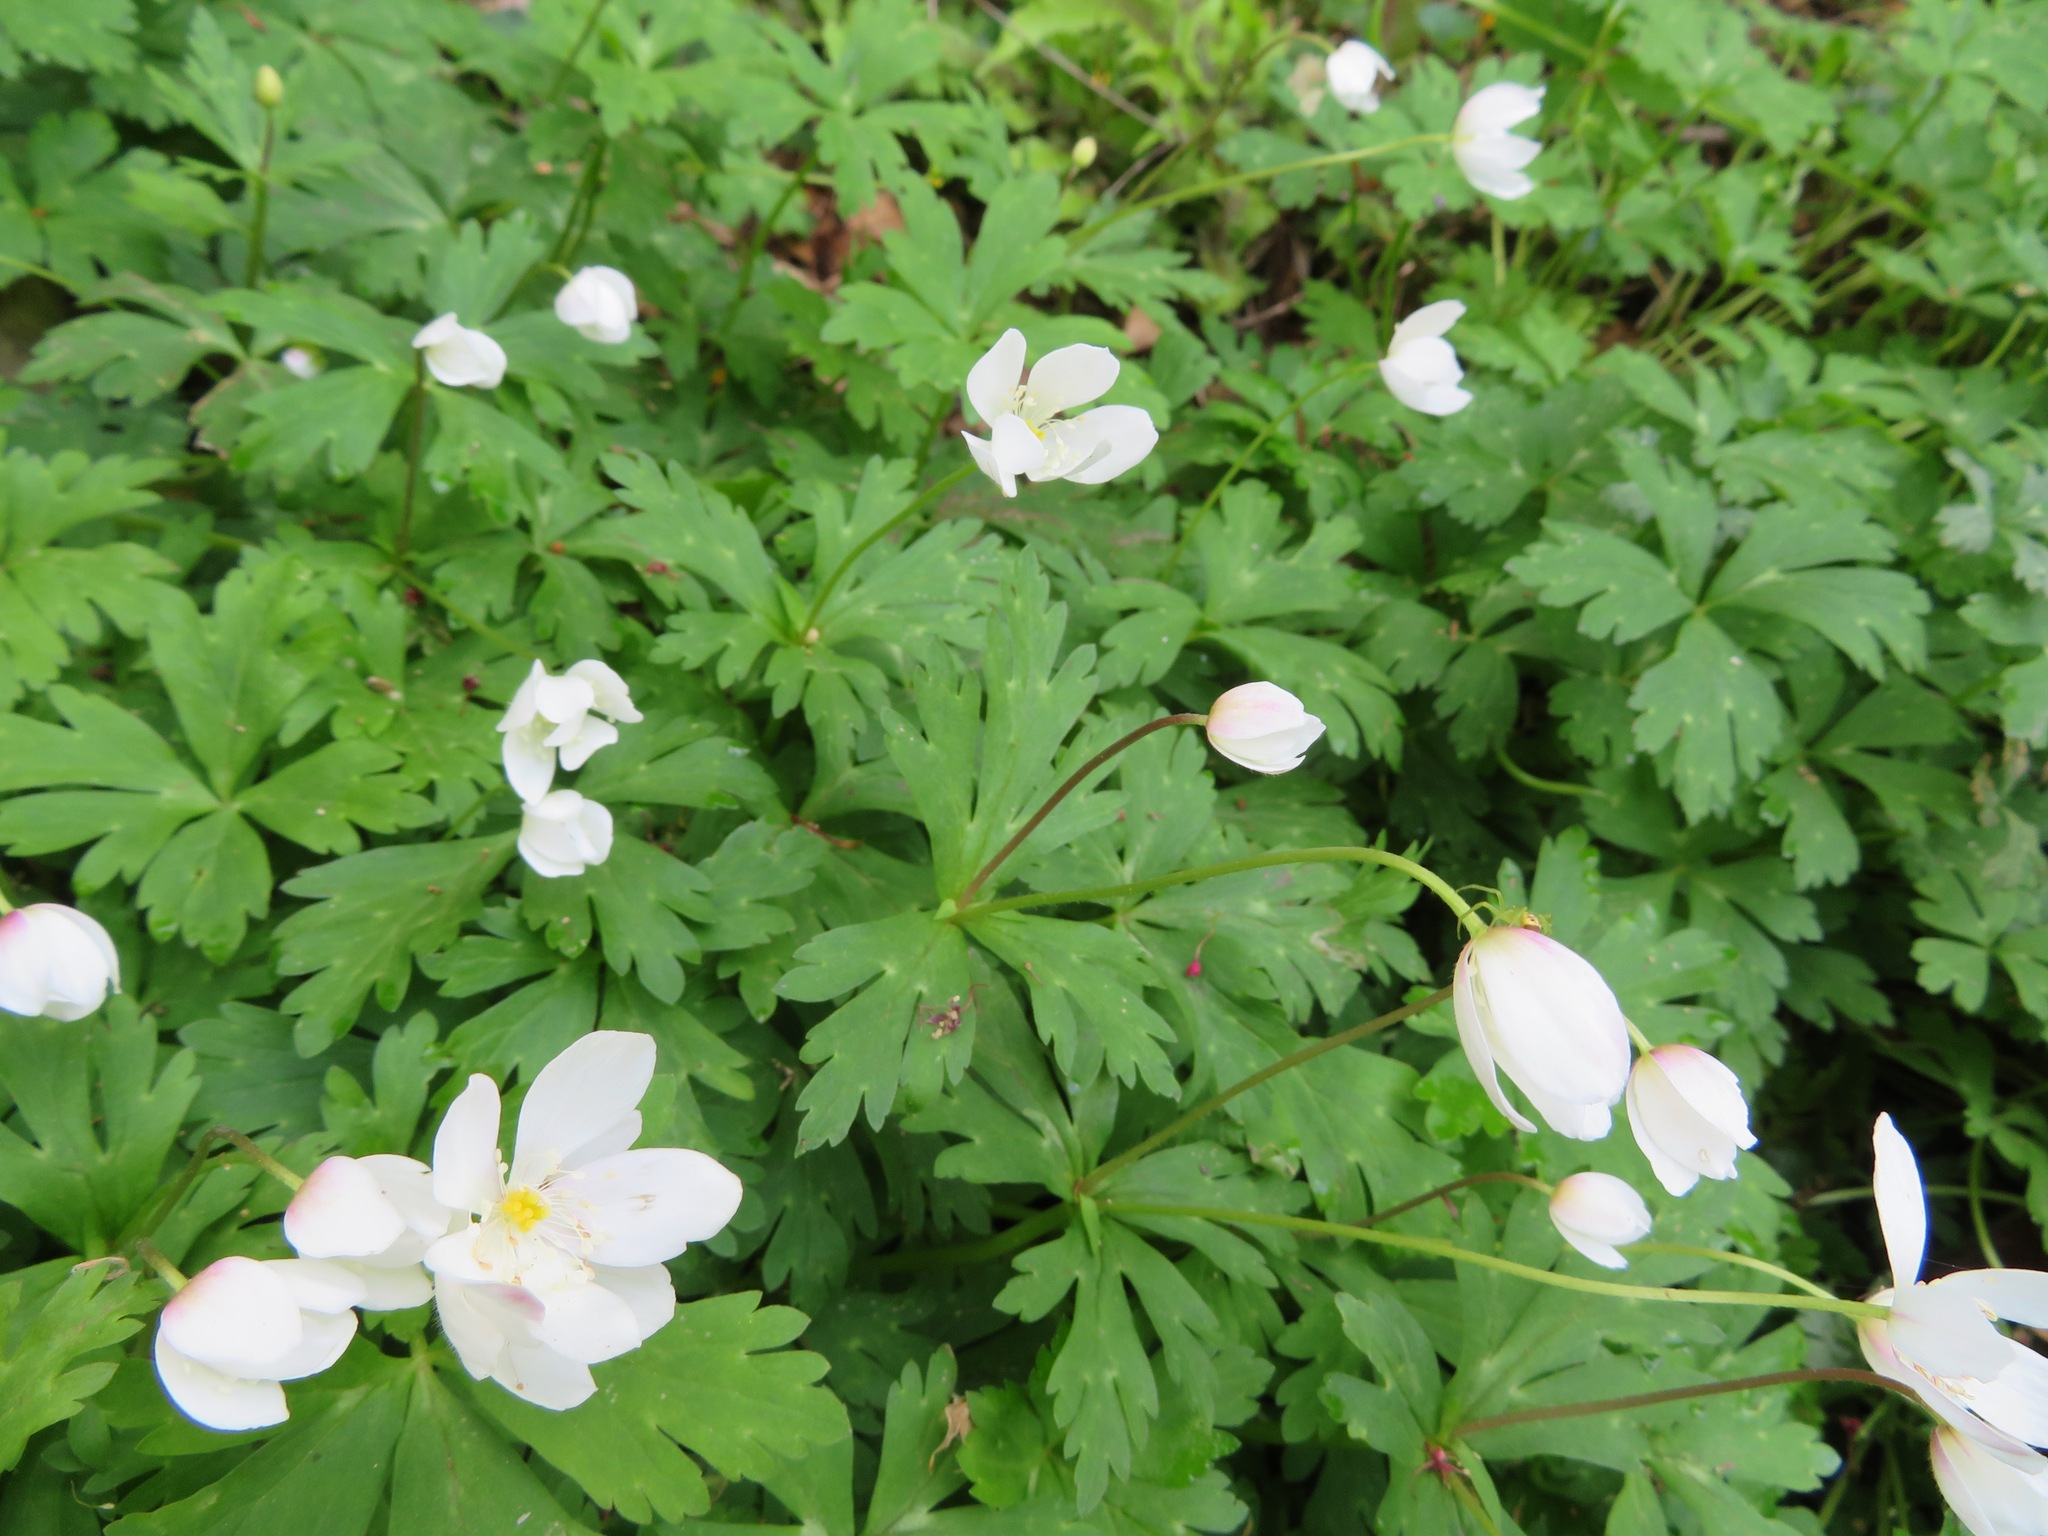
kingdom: Plantae
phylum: Tracheophyta
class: Magnoliopsida
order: Ranunculales
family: Ranunculaceae
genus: Anemonastrum
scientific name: Anemonastrum flaccidum
